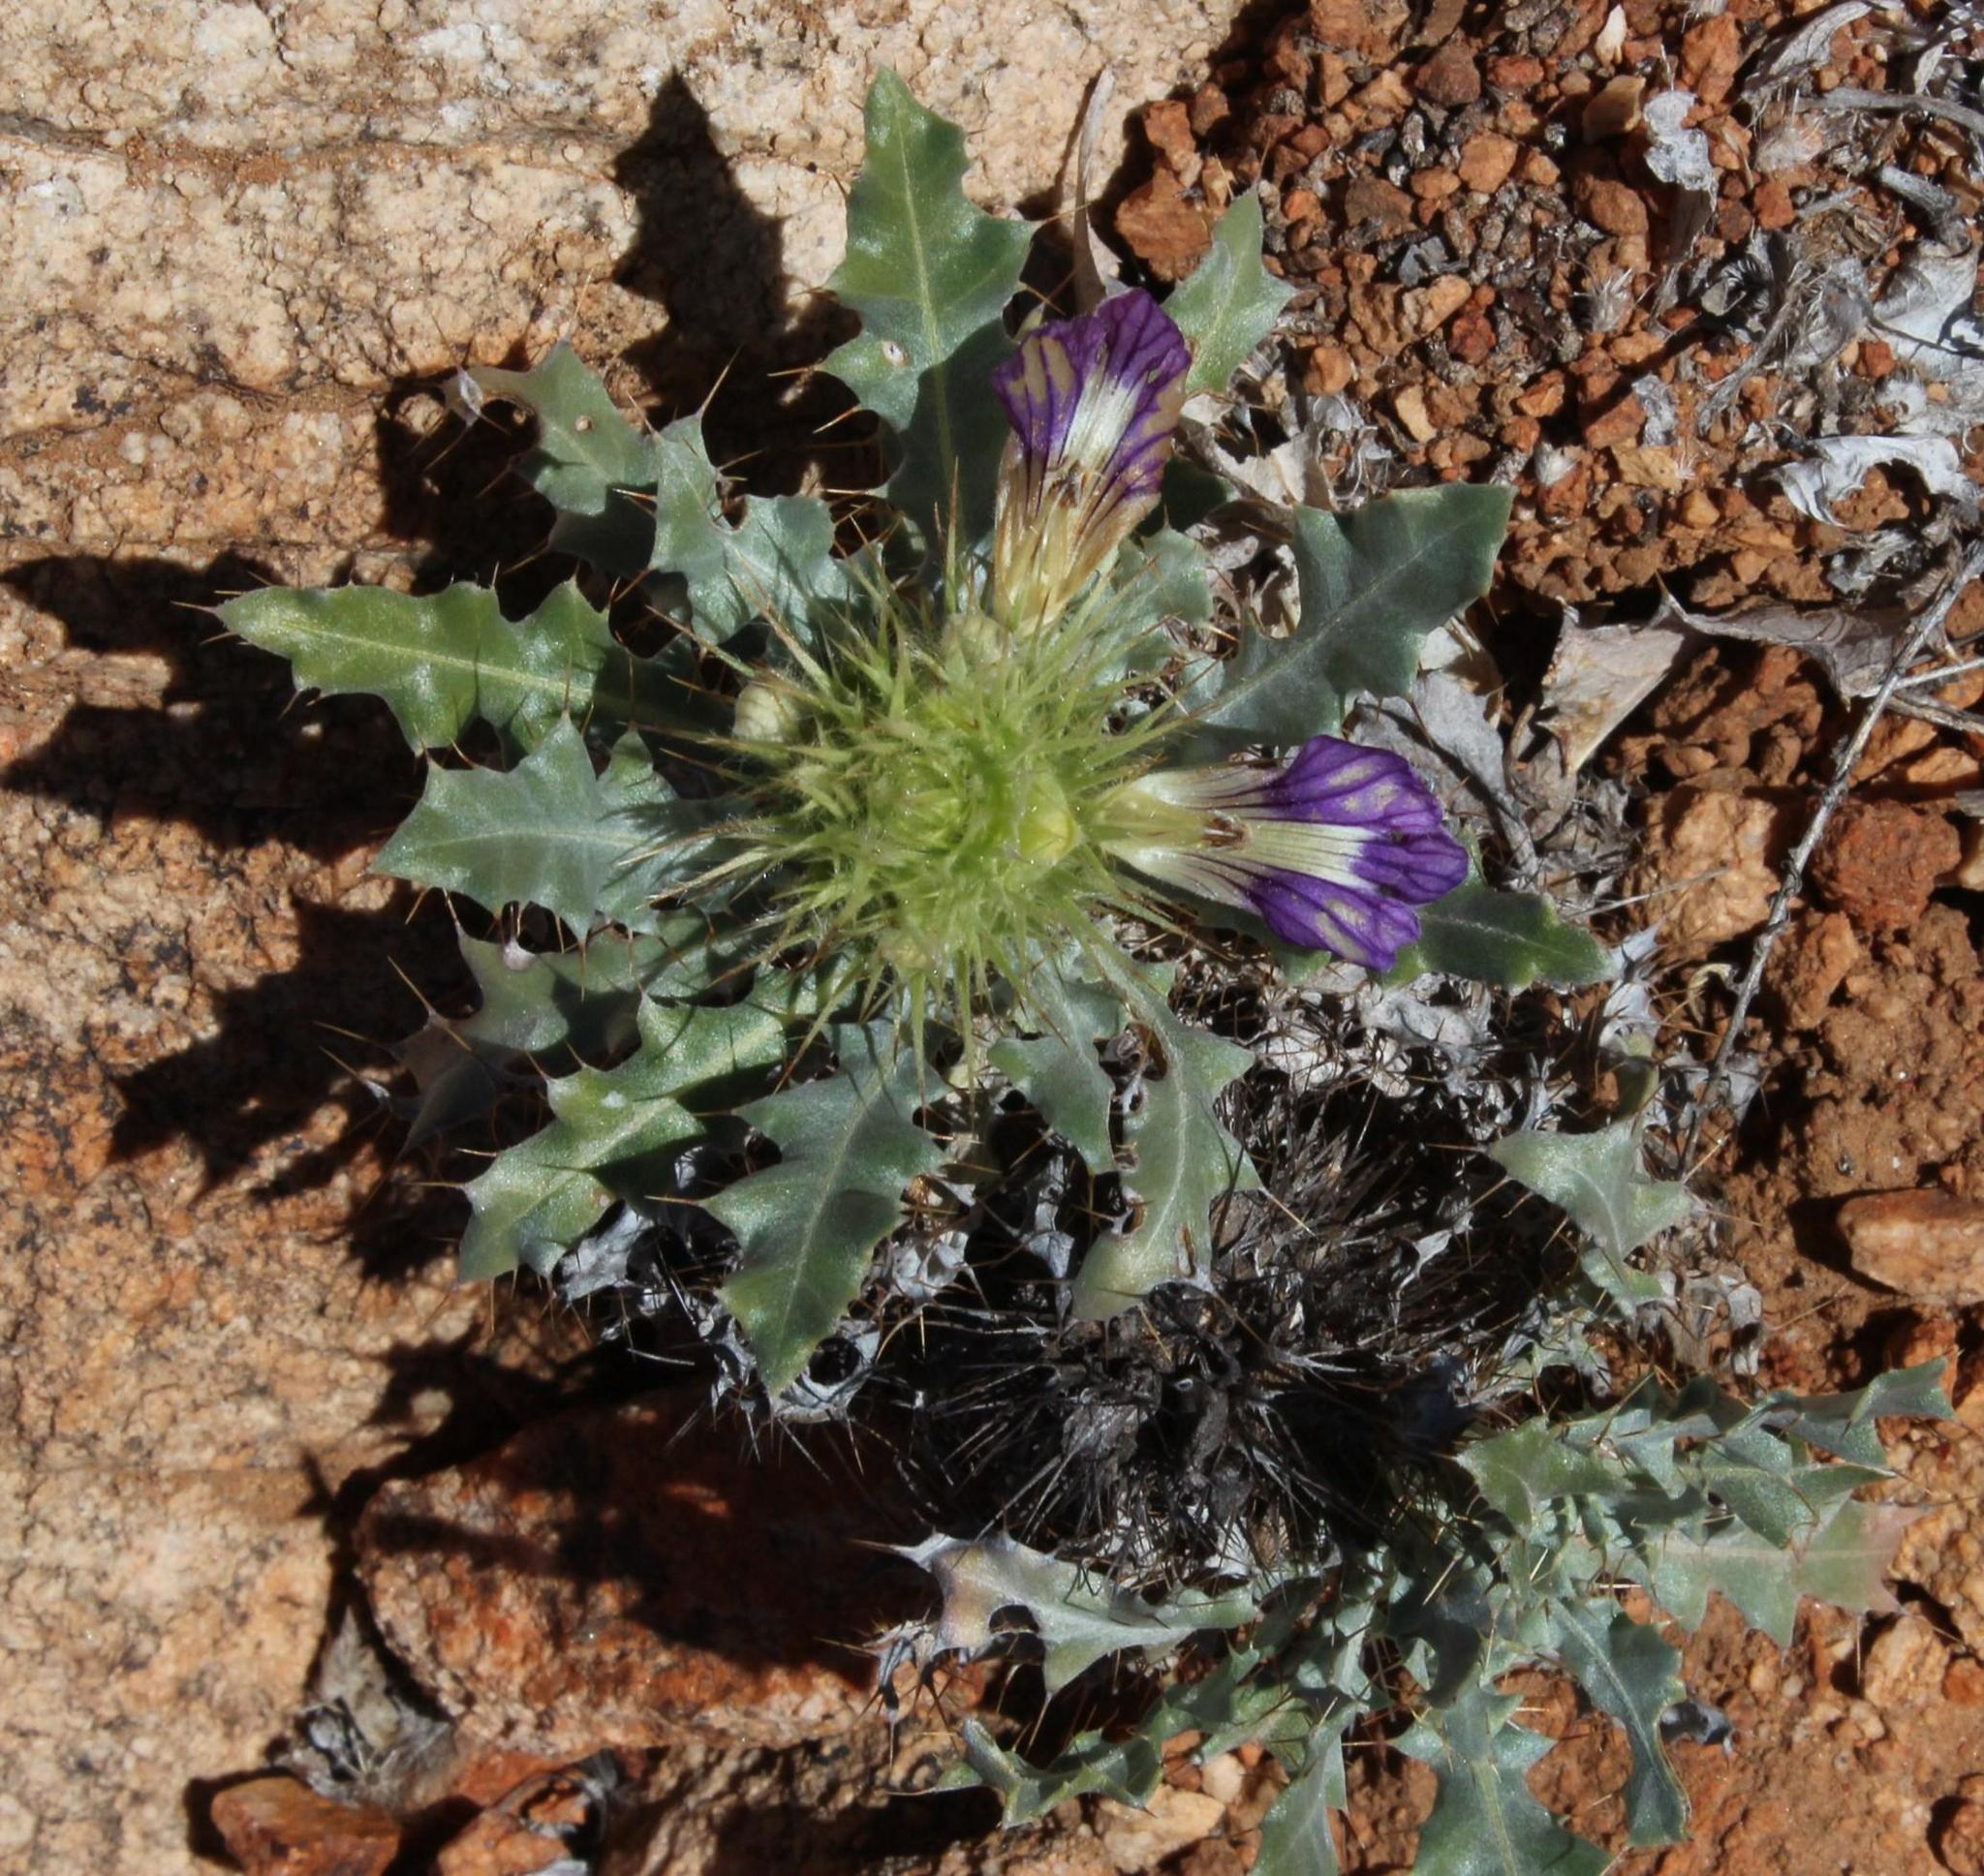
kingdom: Plantae
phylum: Tracheophyta
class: Magnoliopsida
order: Lamiales
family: Acanthaceae
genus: Acanthopsis
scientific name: Acanthopsis disperma
